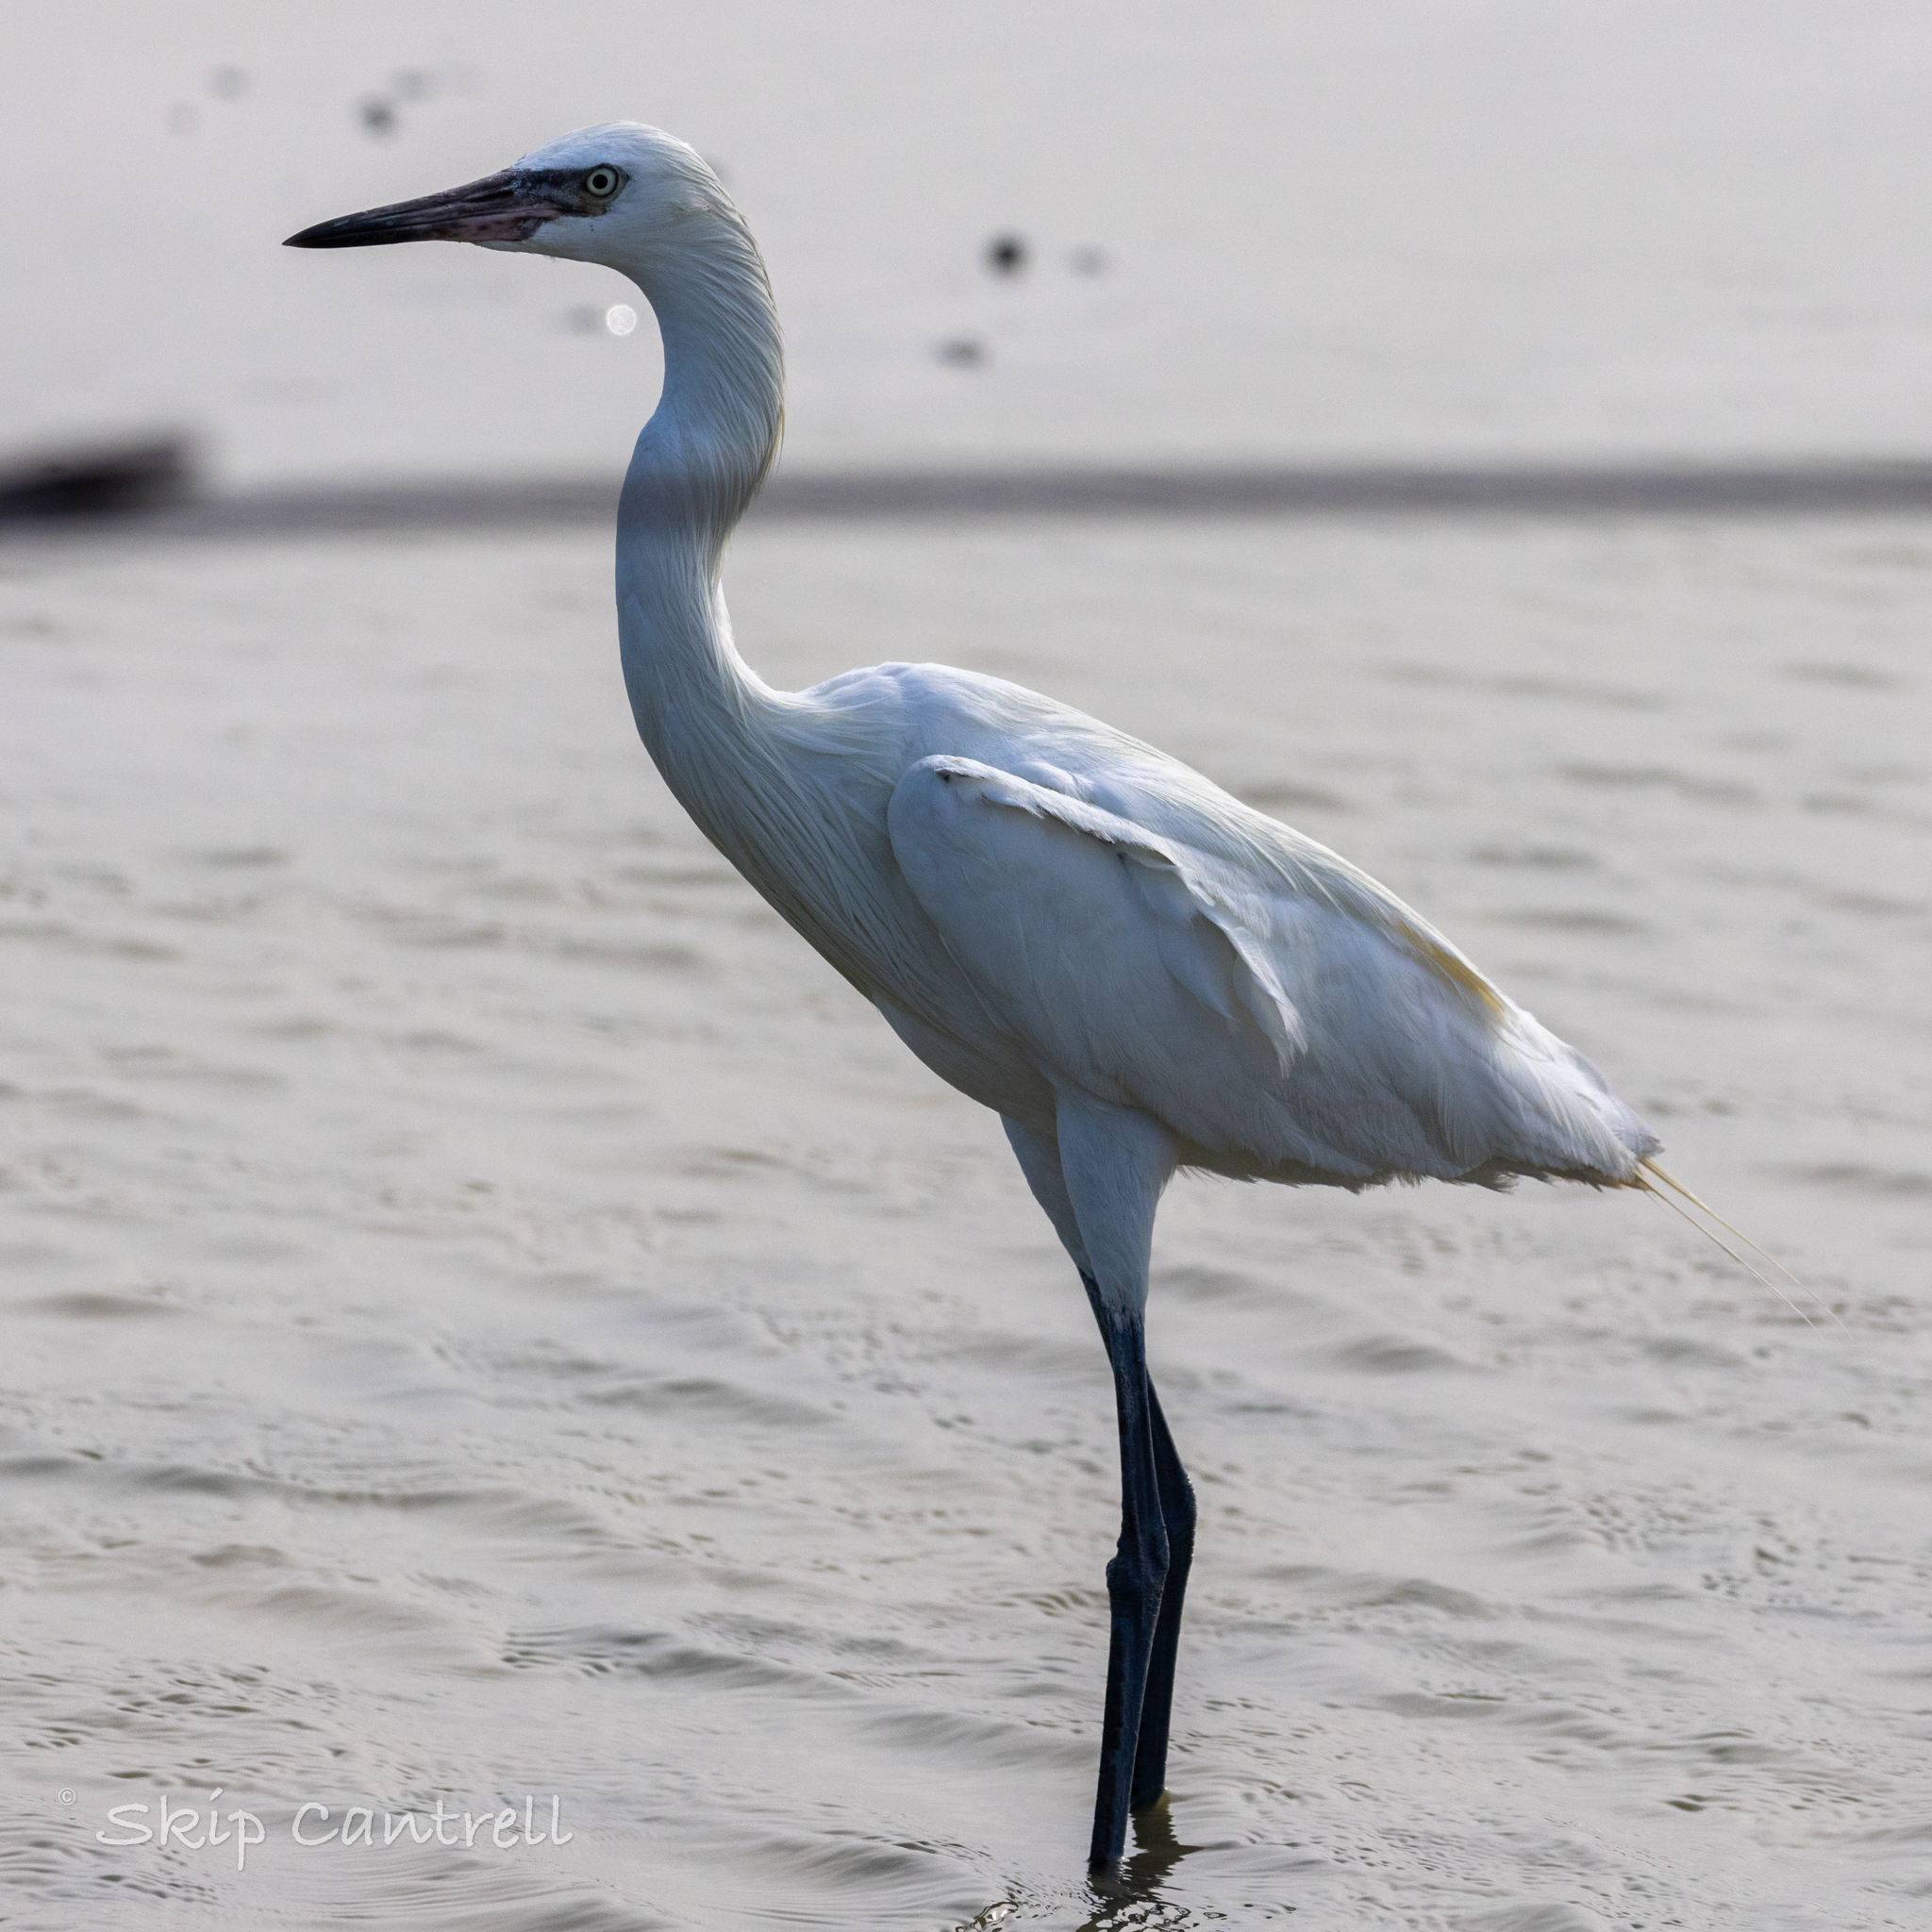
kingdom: Animalia
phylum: Chordata
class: Aves
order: Pelecaniformes
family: Ardeidae
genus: Egretta
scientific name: Egretta rufescens
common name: Reddish egret
